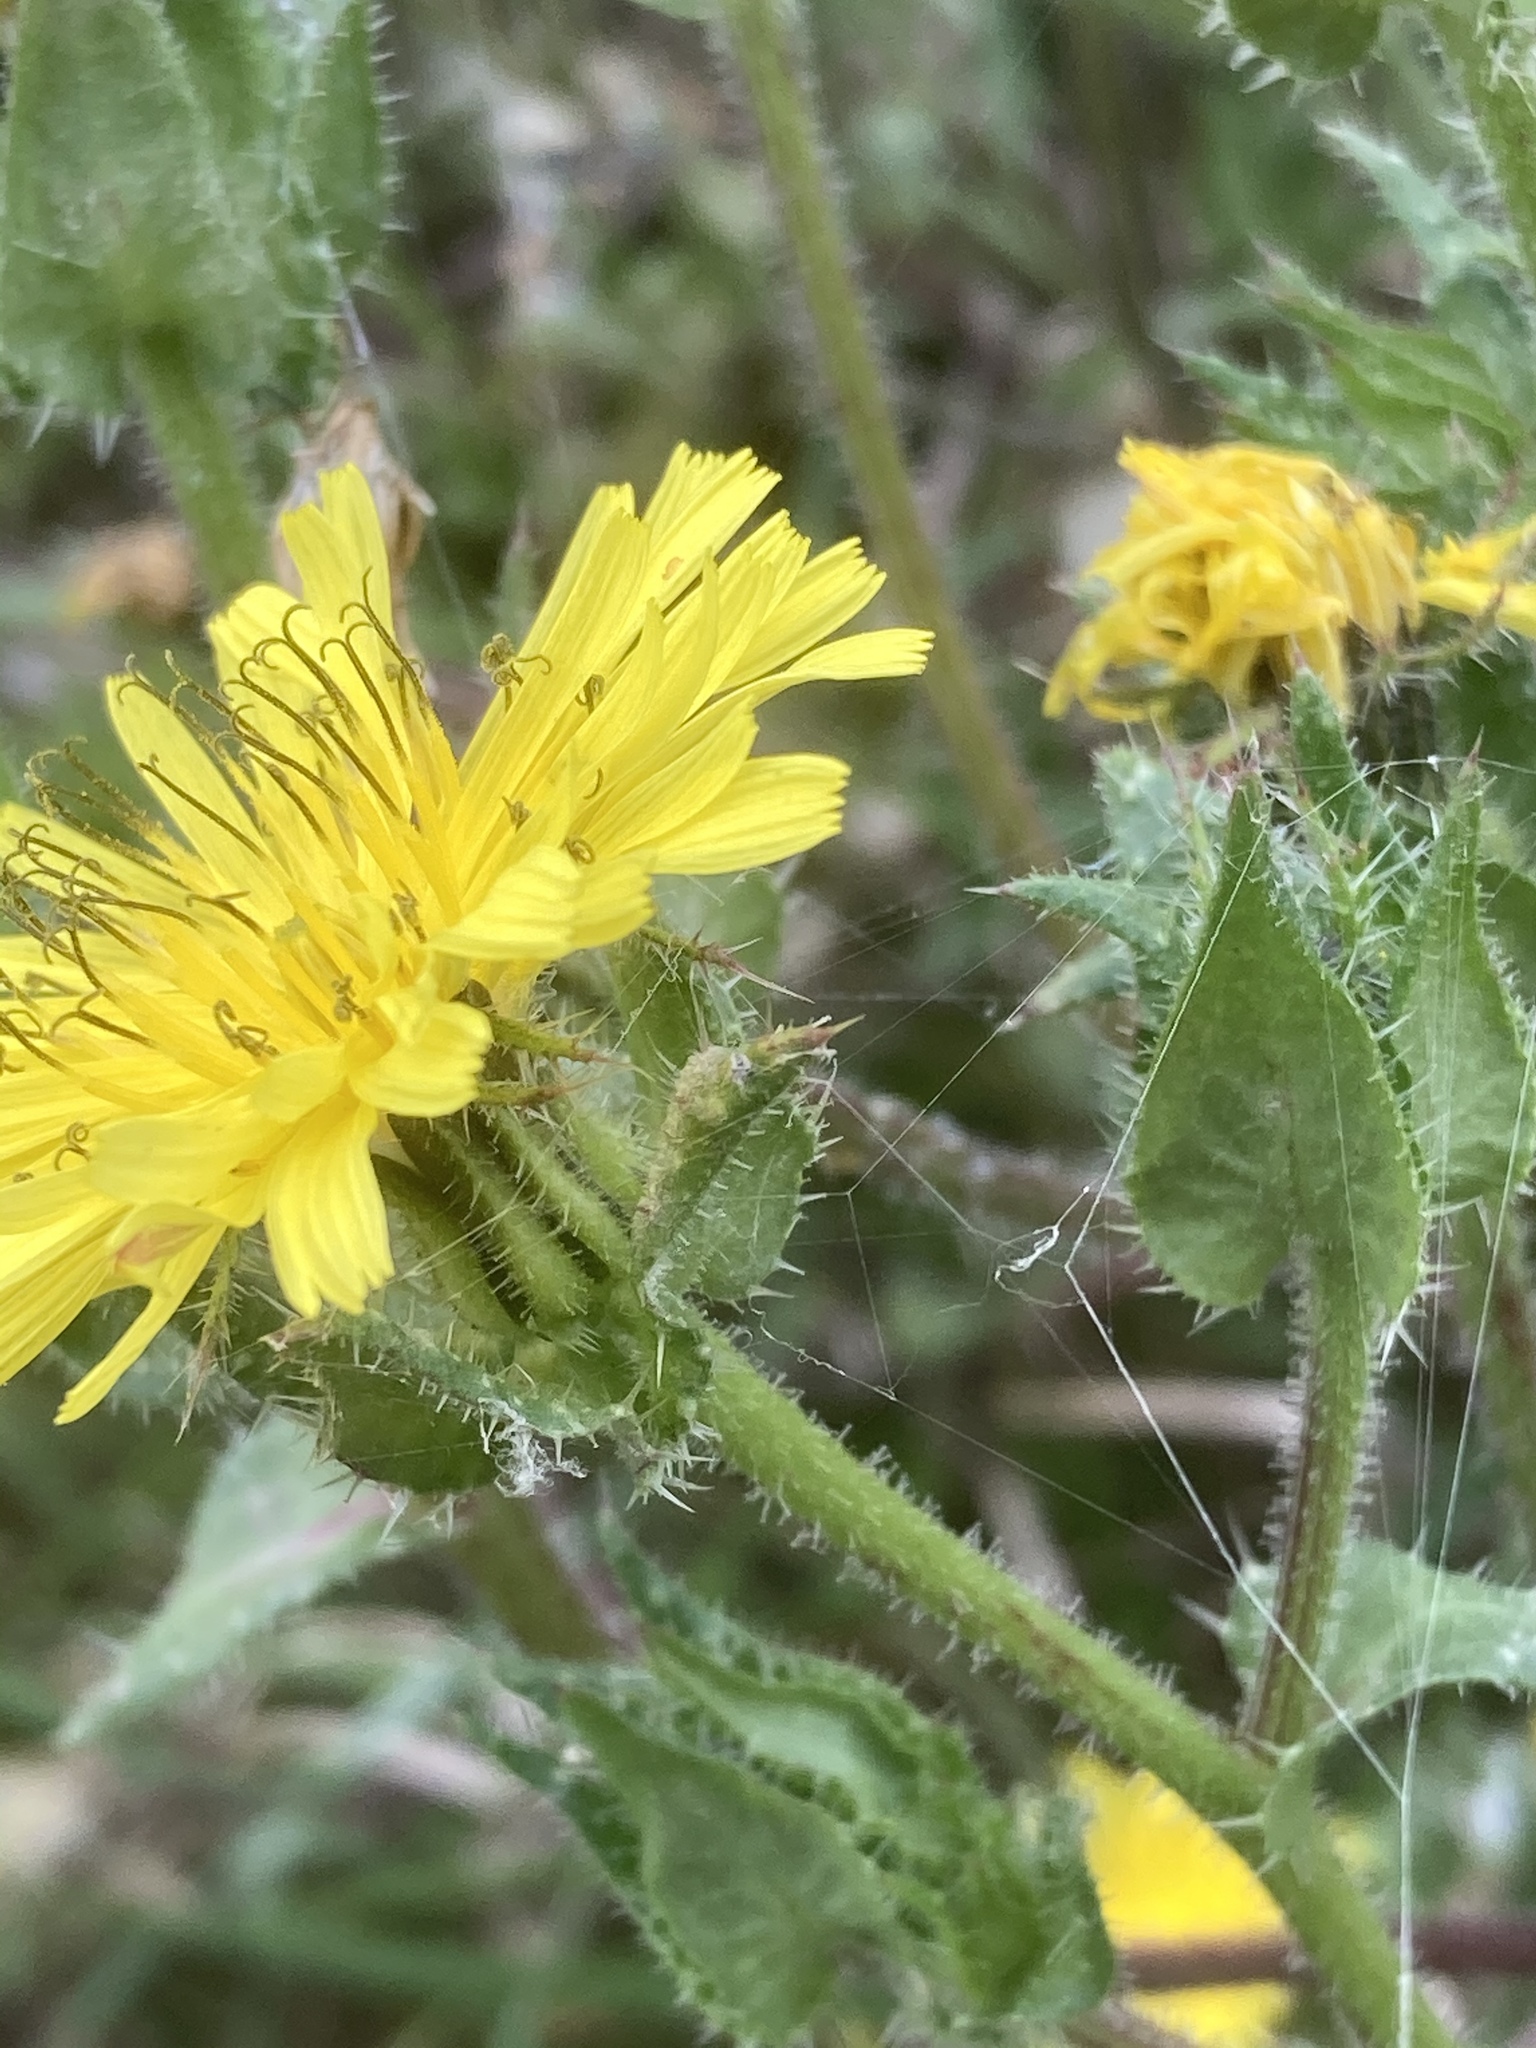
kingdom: Animalia
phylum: Arthropoda
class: Insecta
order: Diptera
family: Syrphidae
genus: Helophilus
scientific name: Helophilus trivittatus
